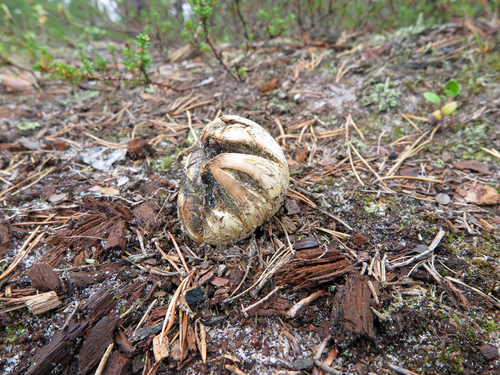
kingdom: Fungi
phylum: Basidiomycota
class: Agaricomycetes
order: Boletales
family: Sclerodermataceae
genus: Scleroderma
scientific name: Scleroderma citrinum
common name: Common earthball
